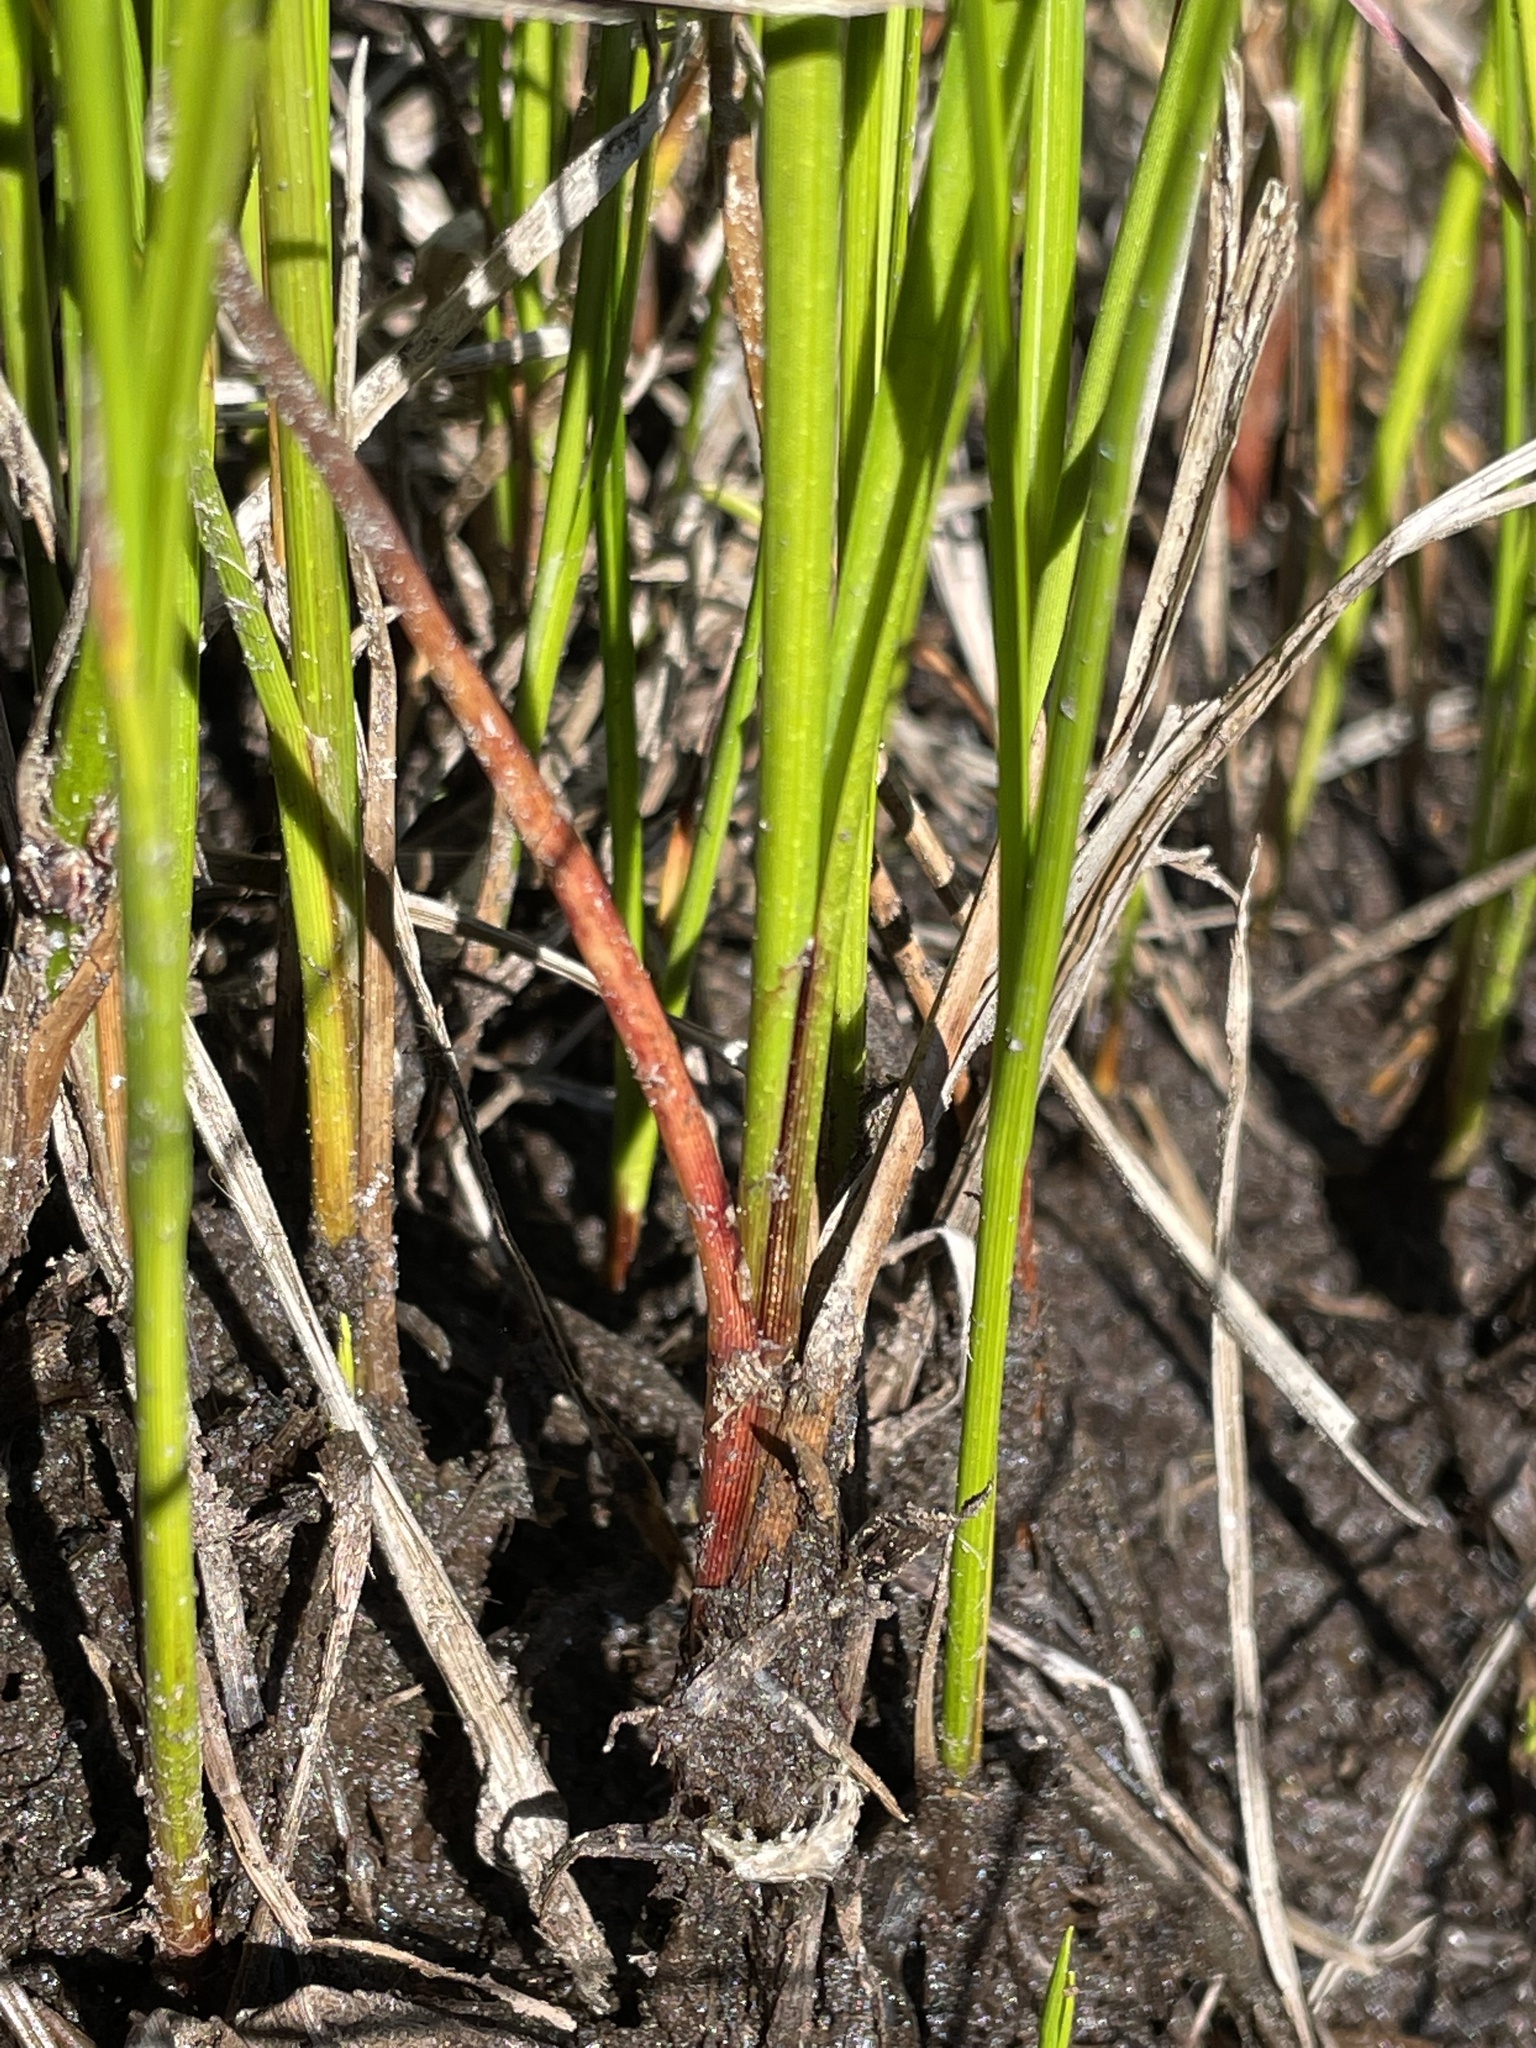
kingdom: Plantae
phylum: Tracheophyta
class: Liliopsida
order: Poales
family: Cyperaceae
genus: Carex
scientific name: Carex saxatilis
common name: Russet sedge
